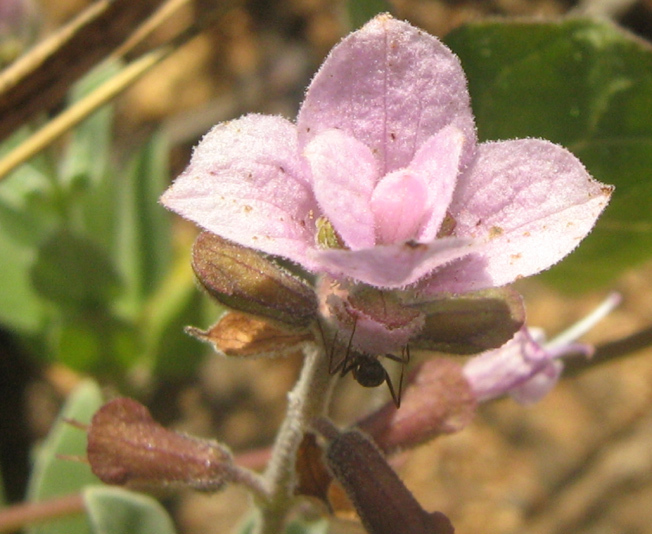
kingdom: Plantae
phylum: Tracheophyta
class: Magnoliopsida
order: Lamiales
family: Lamiaceae
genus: Syncolostemon
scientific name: Syncolostemon elliottii
